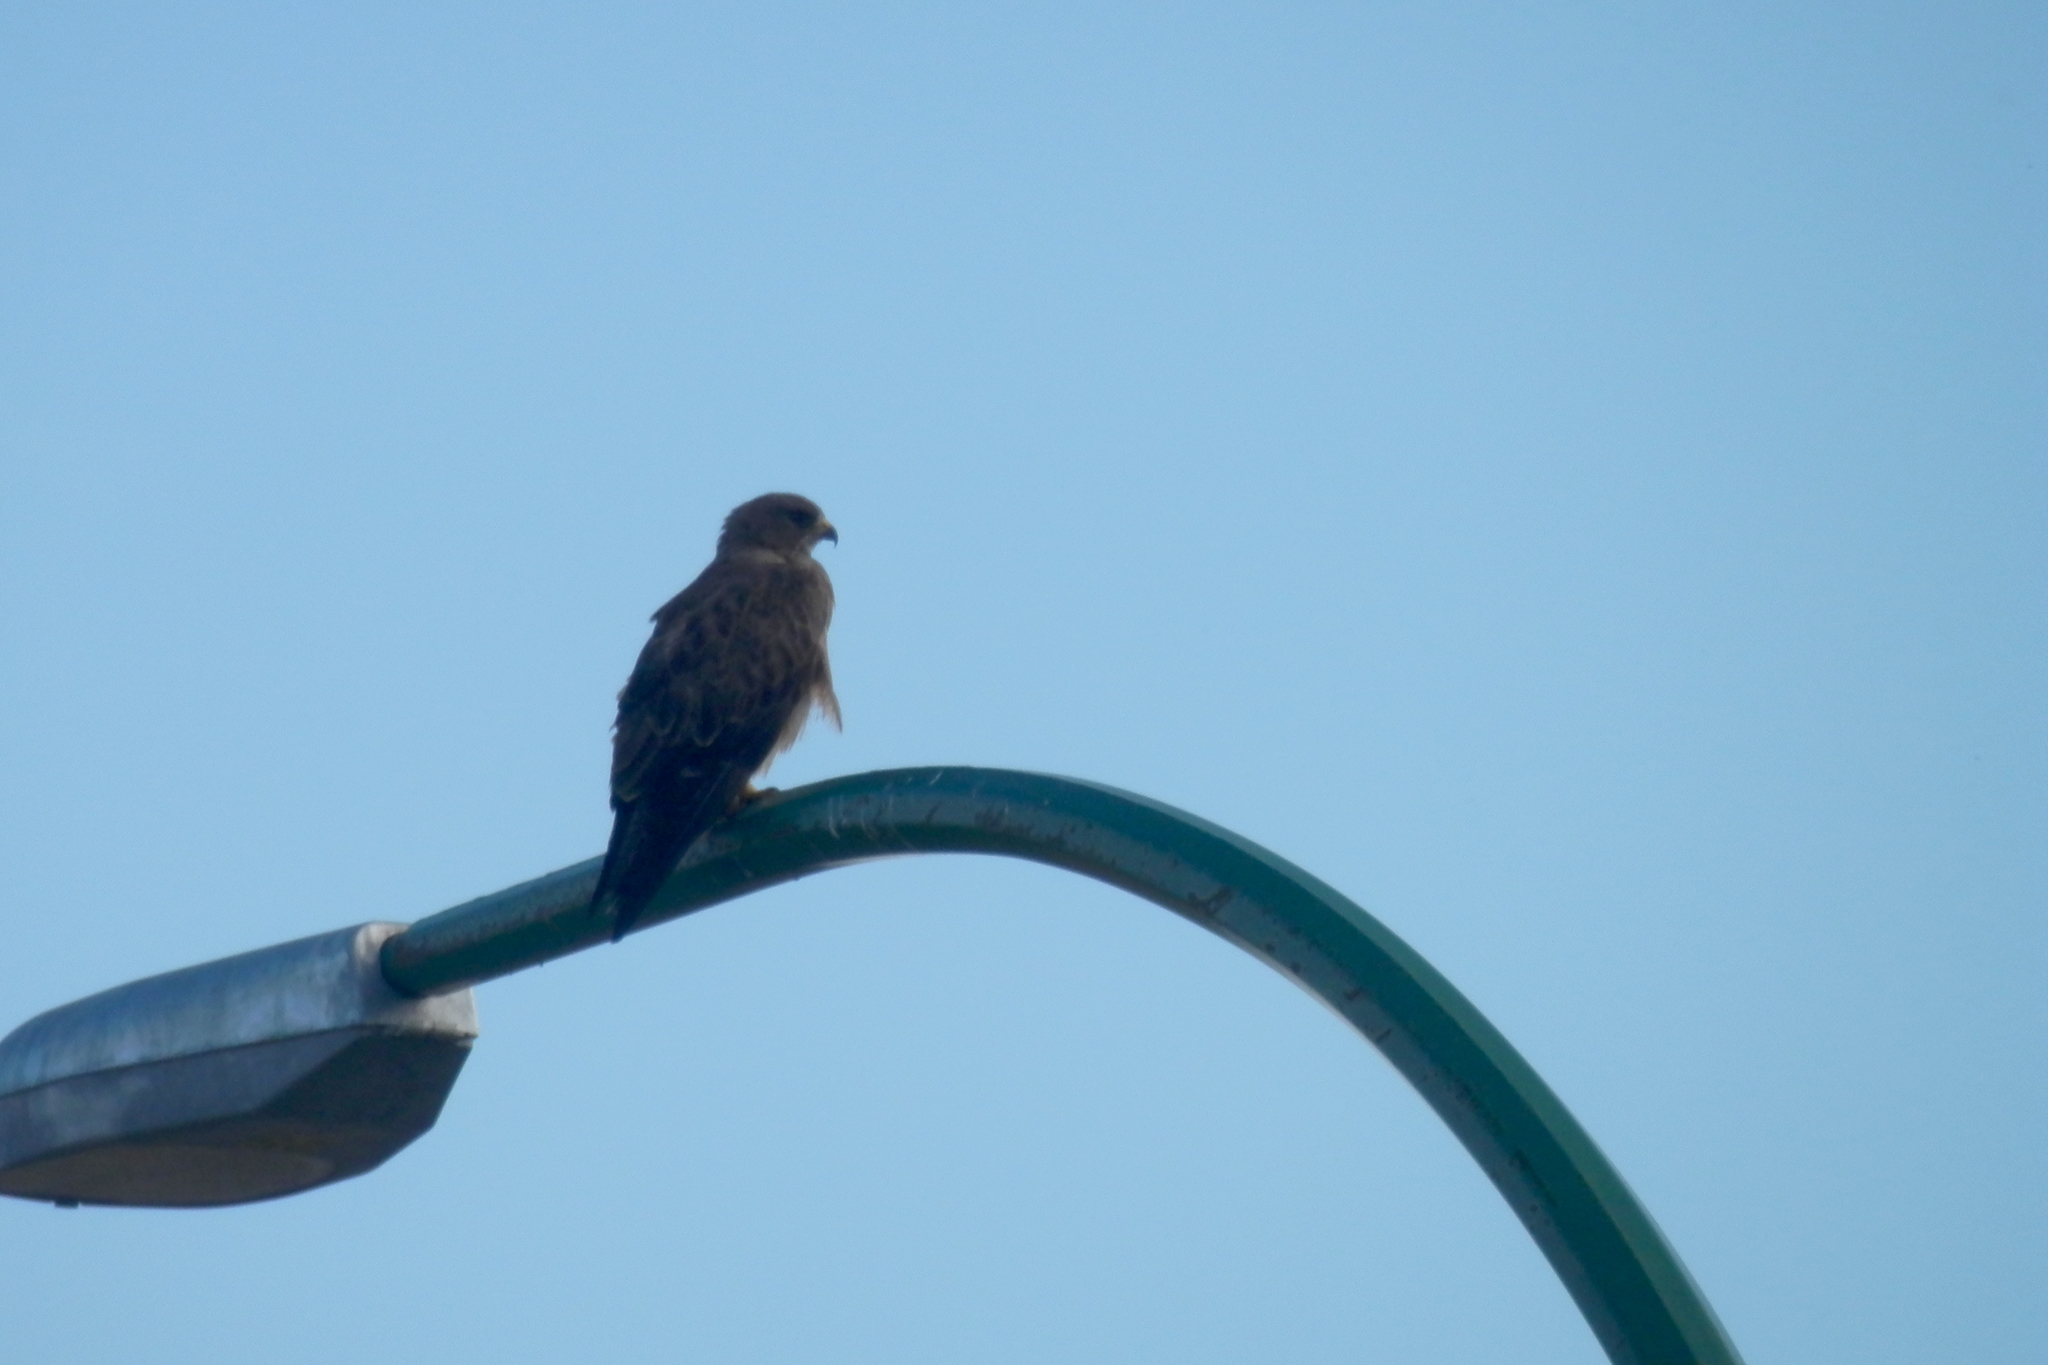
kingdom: Animalia
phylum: Chordata
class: Aves
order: Accipitriformes
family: Accipitridae
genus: Buteo
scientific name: Buteo swainsoni
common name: Swainson's hawk
